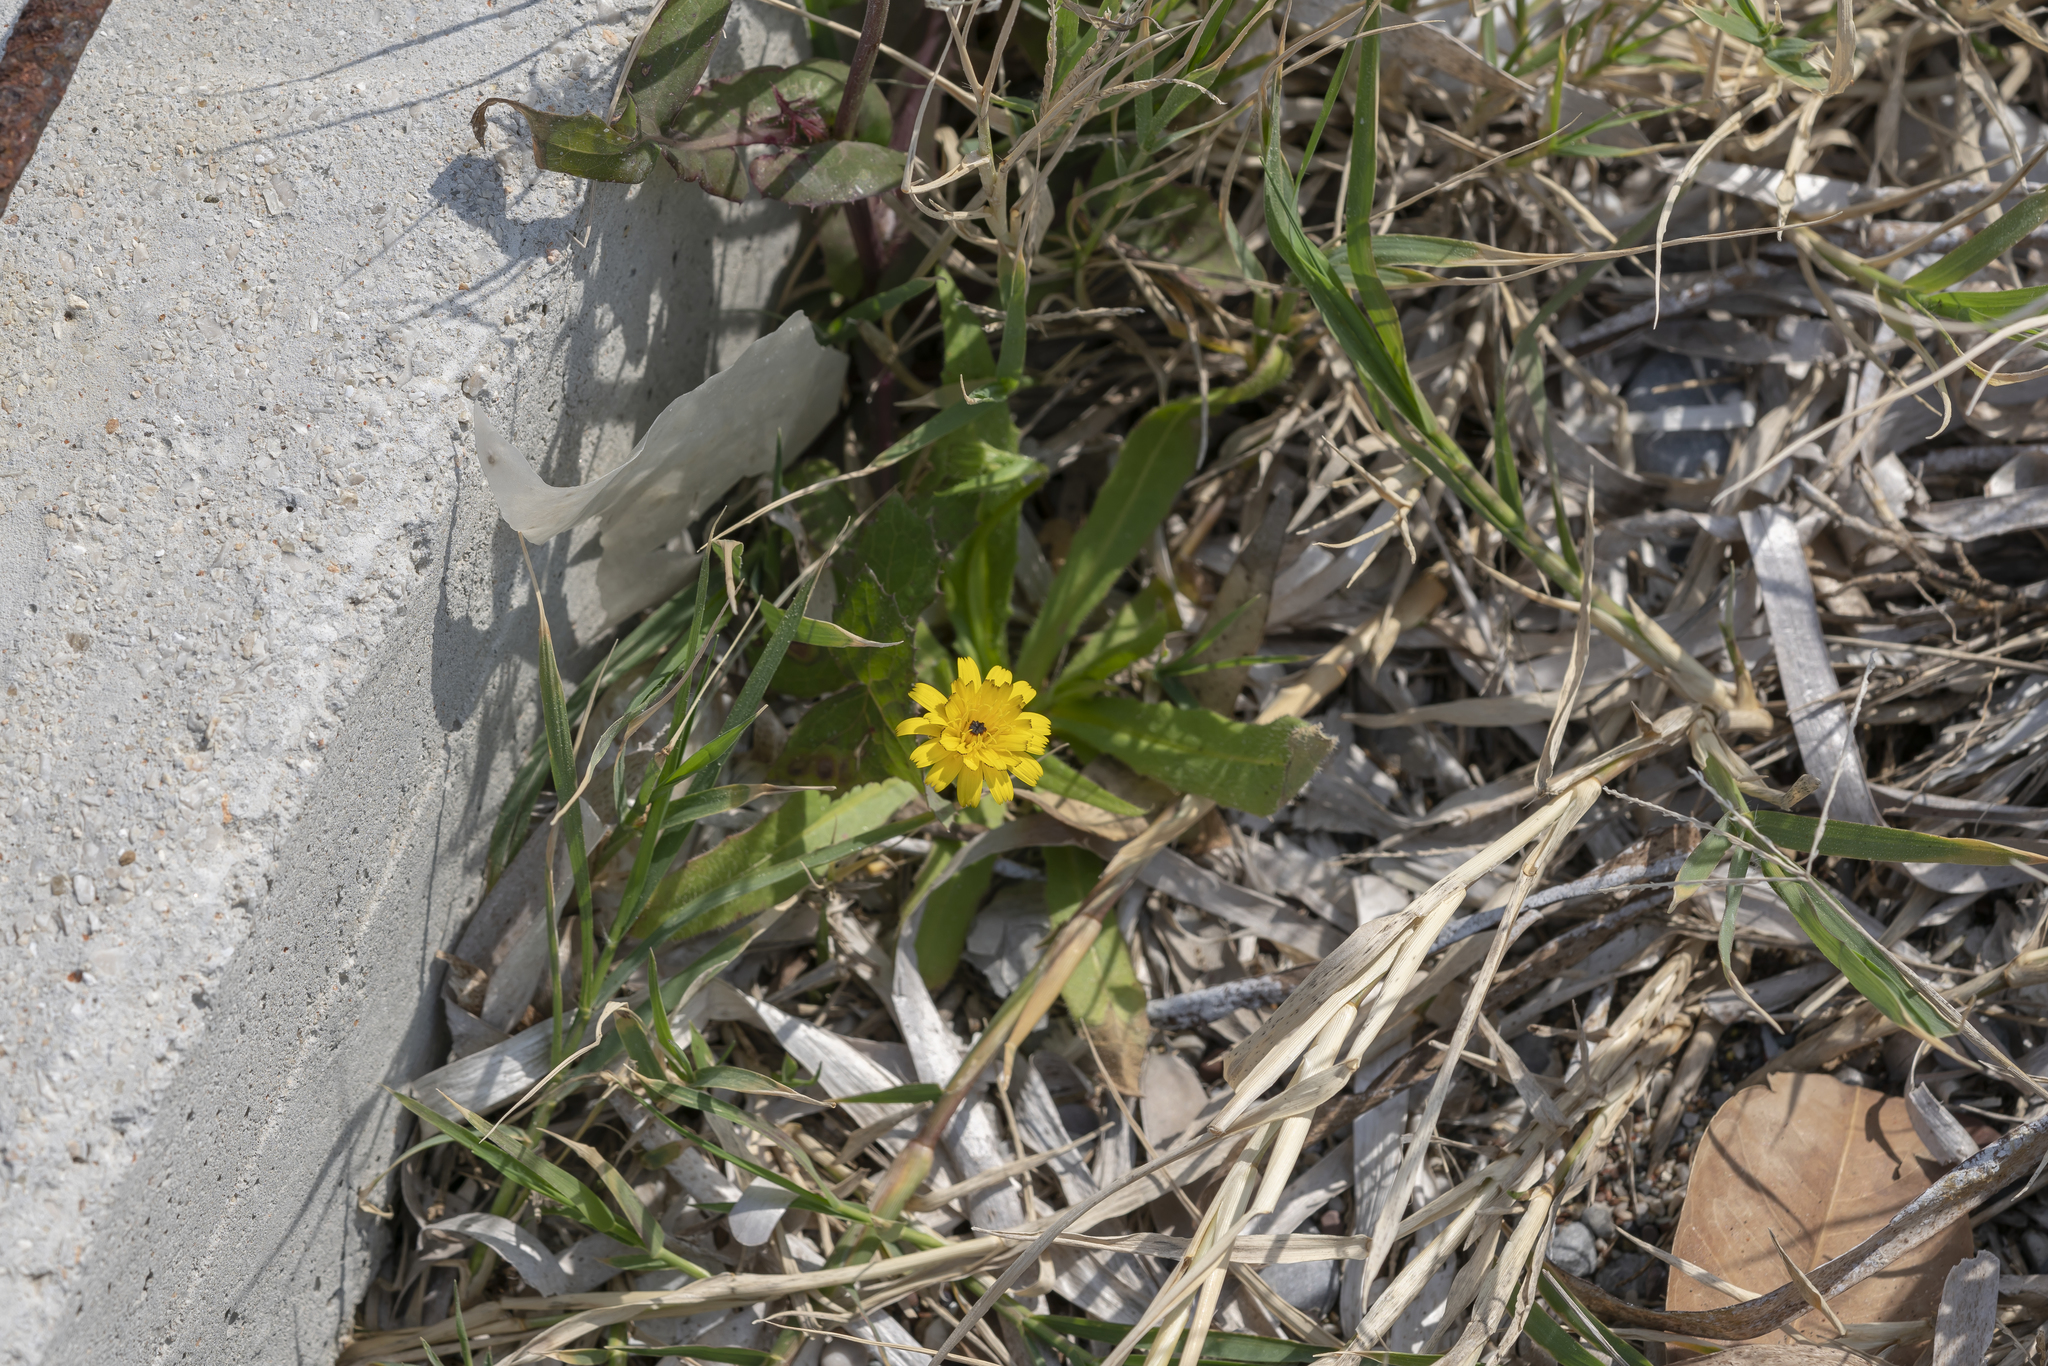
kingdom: Plantae
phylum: Tracheophyta
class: Magnoliopsida
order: Asterales
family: Asteraceae
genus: Hedypnois
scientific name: Hedypnois rhagadioloides
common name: Cretan weed
